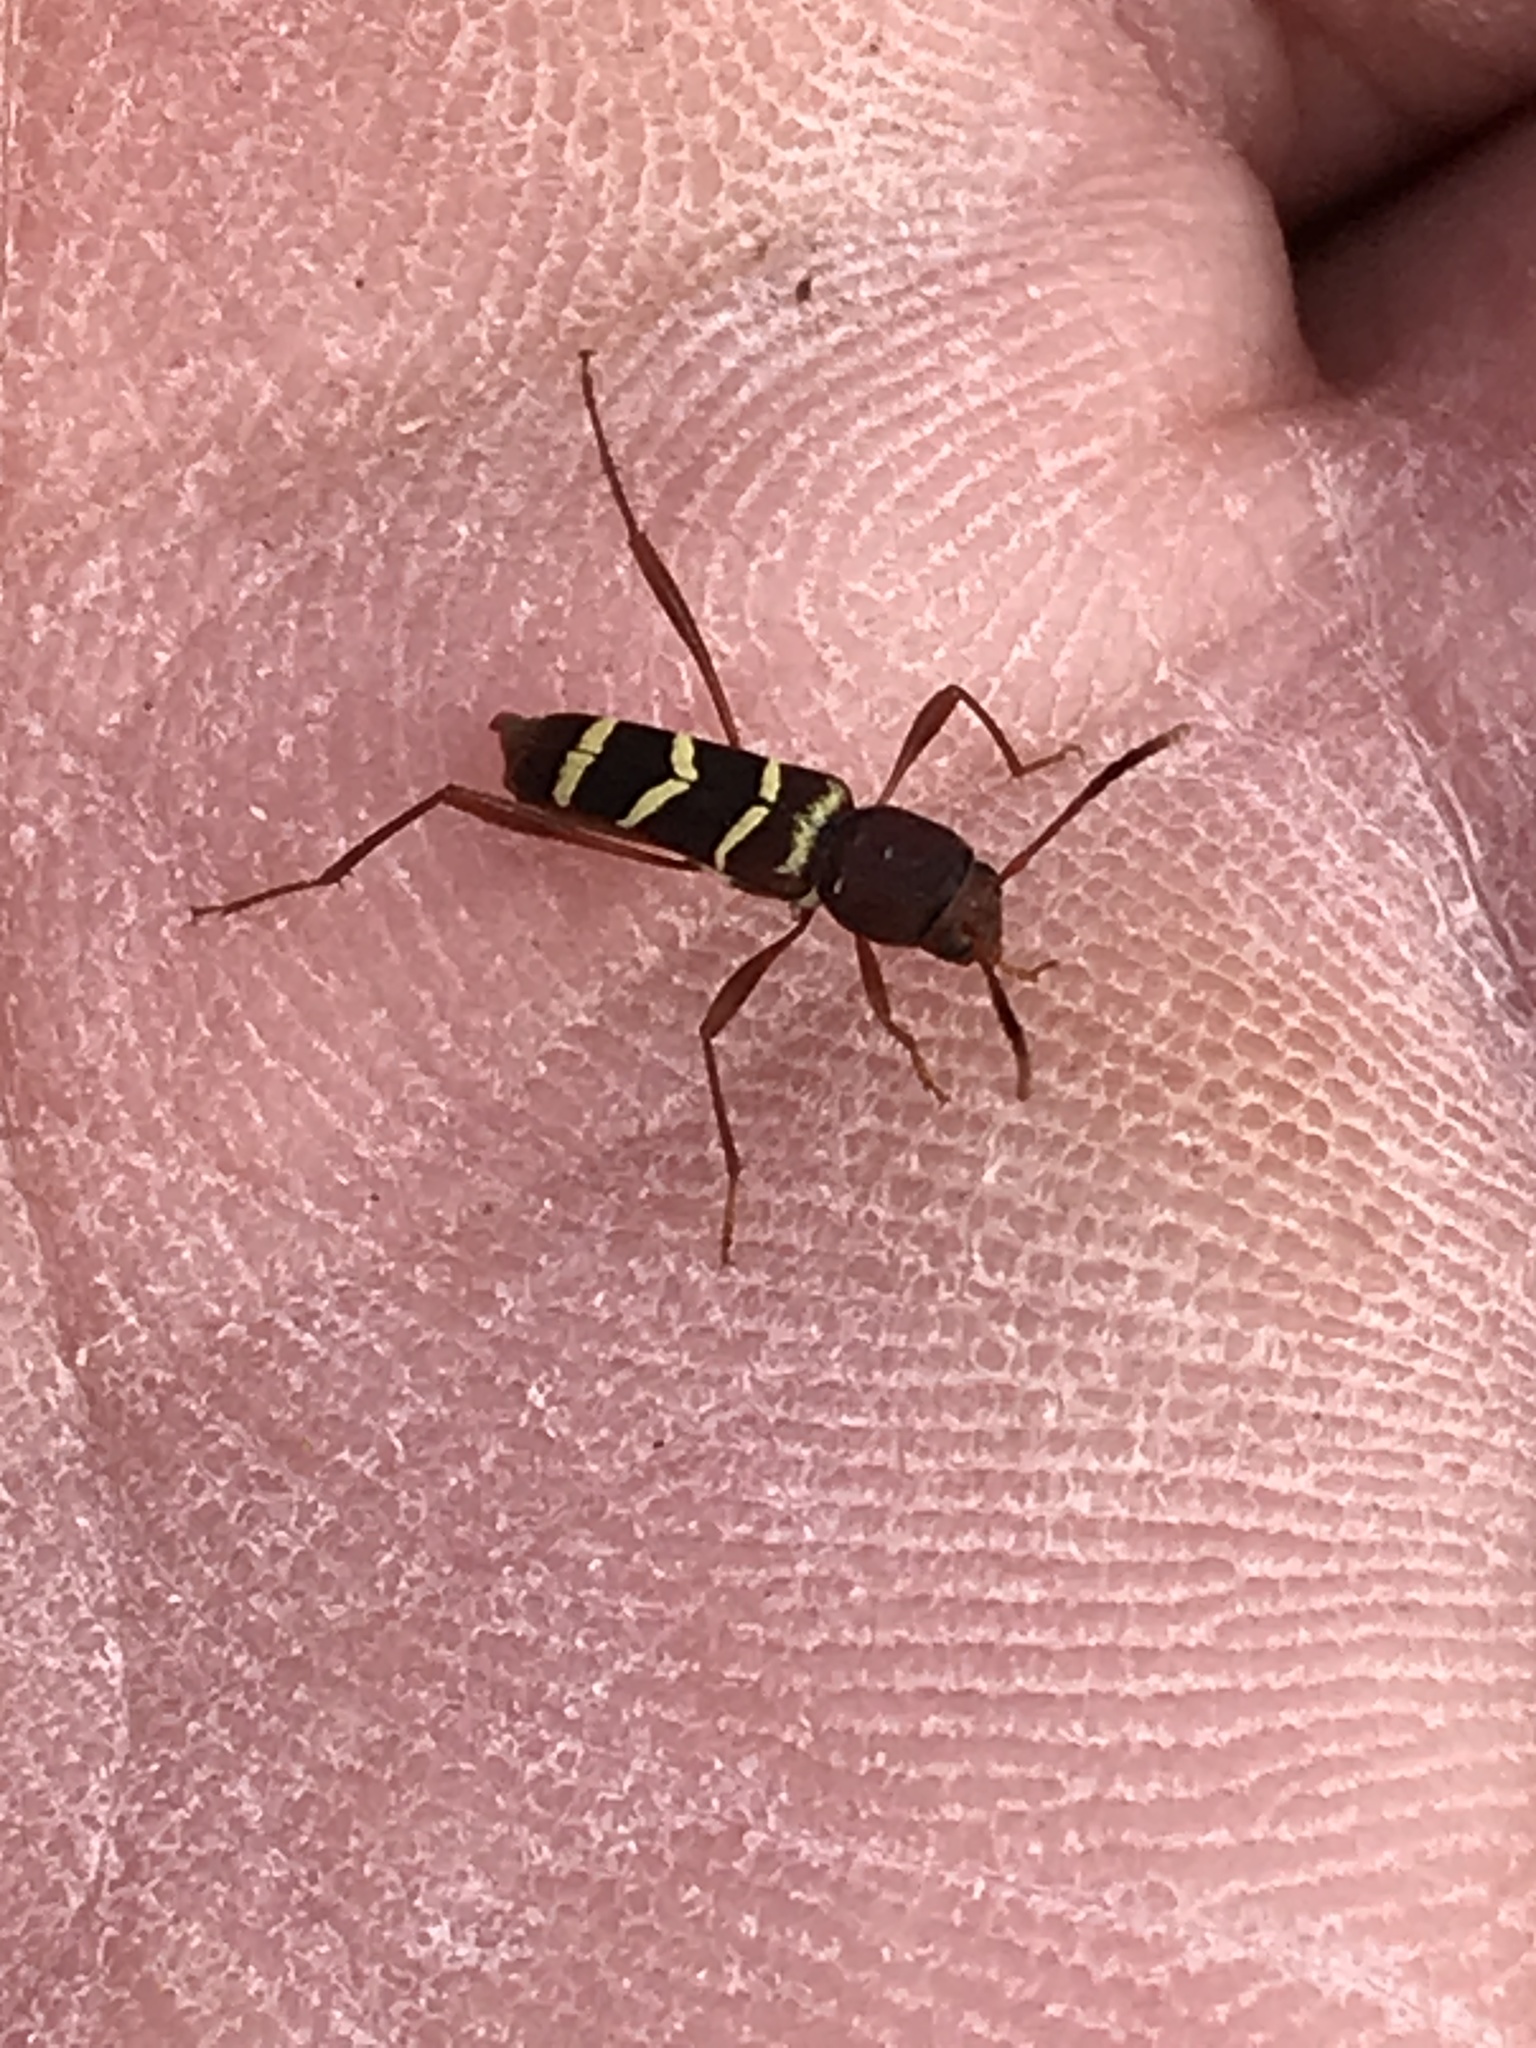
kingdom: Animalia
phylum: Arthropoda
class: Insecta
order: Coleoptera
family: Cerambycidae
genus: Neoclytus
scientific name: Neoclytus acuminatus
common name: Read-headed ash borer
